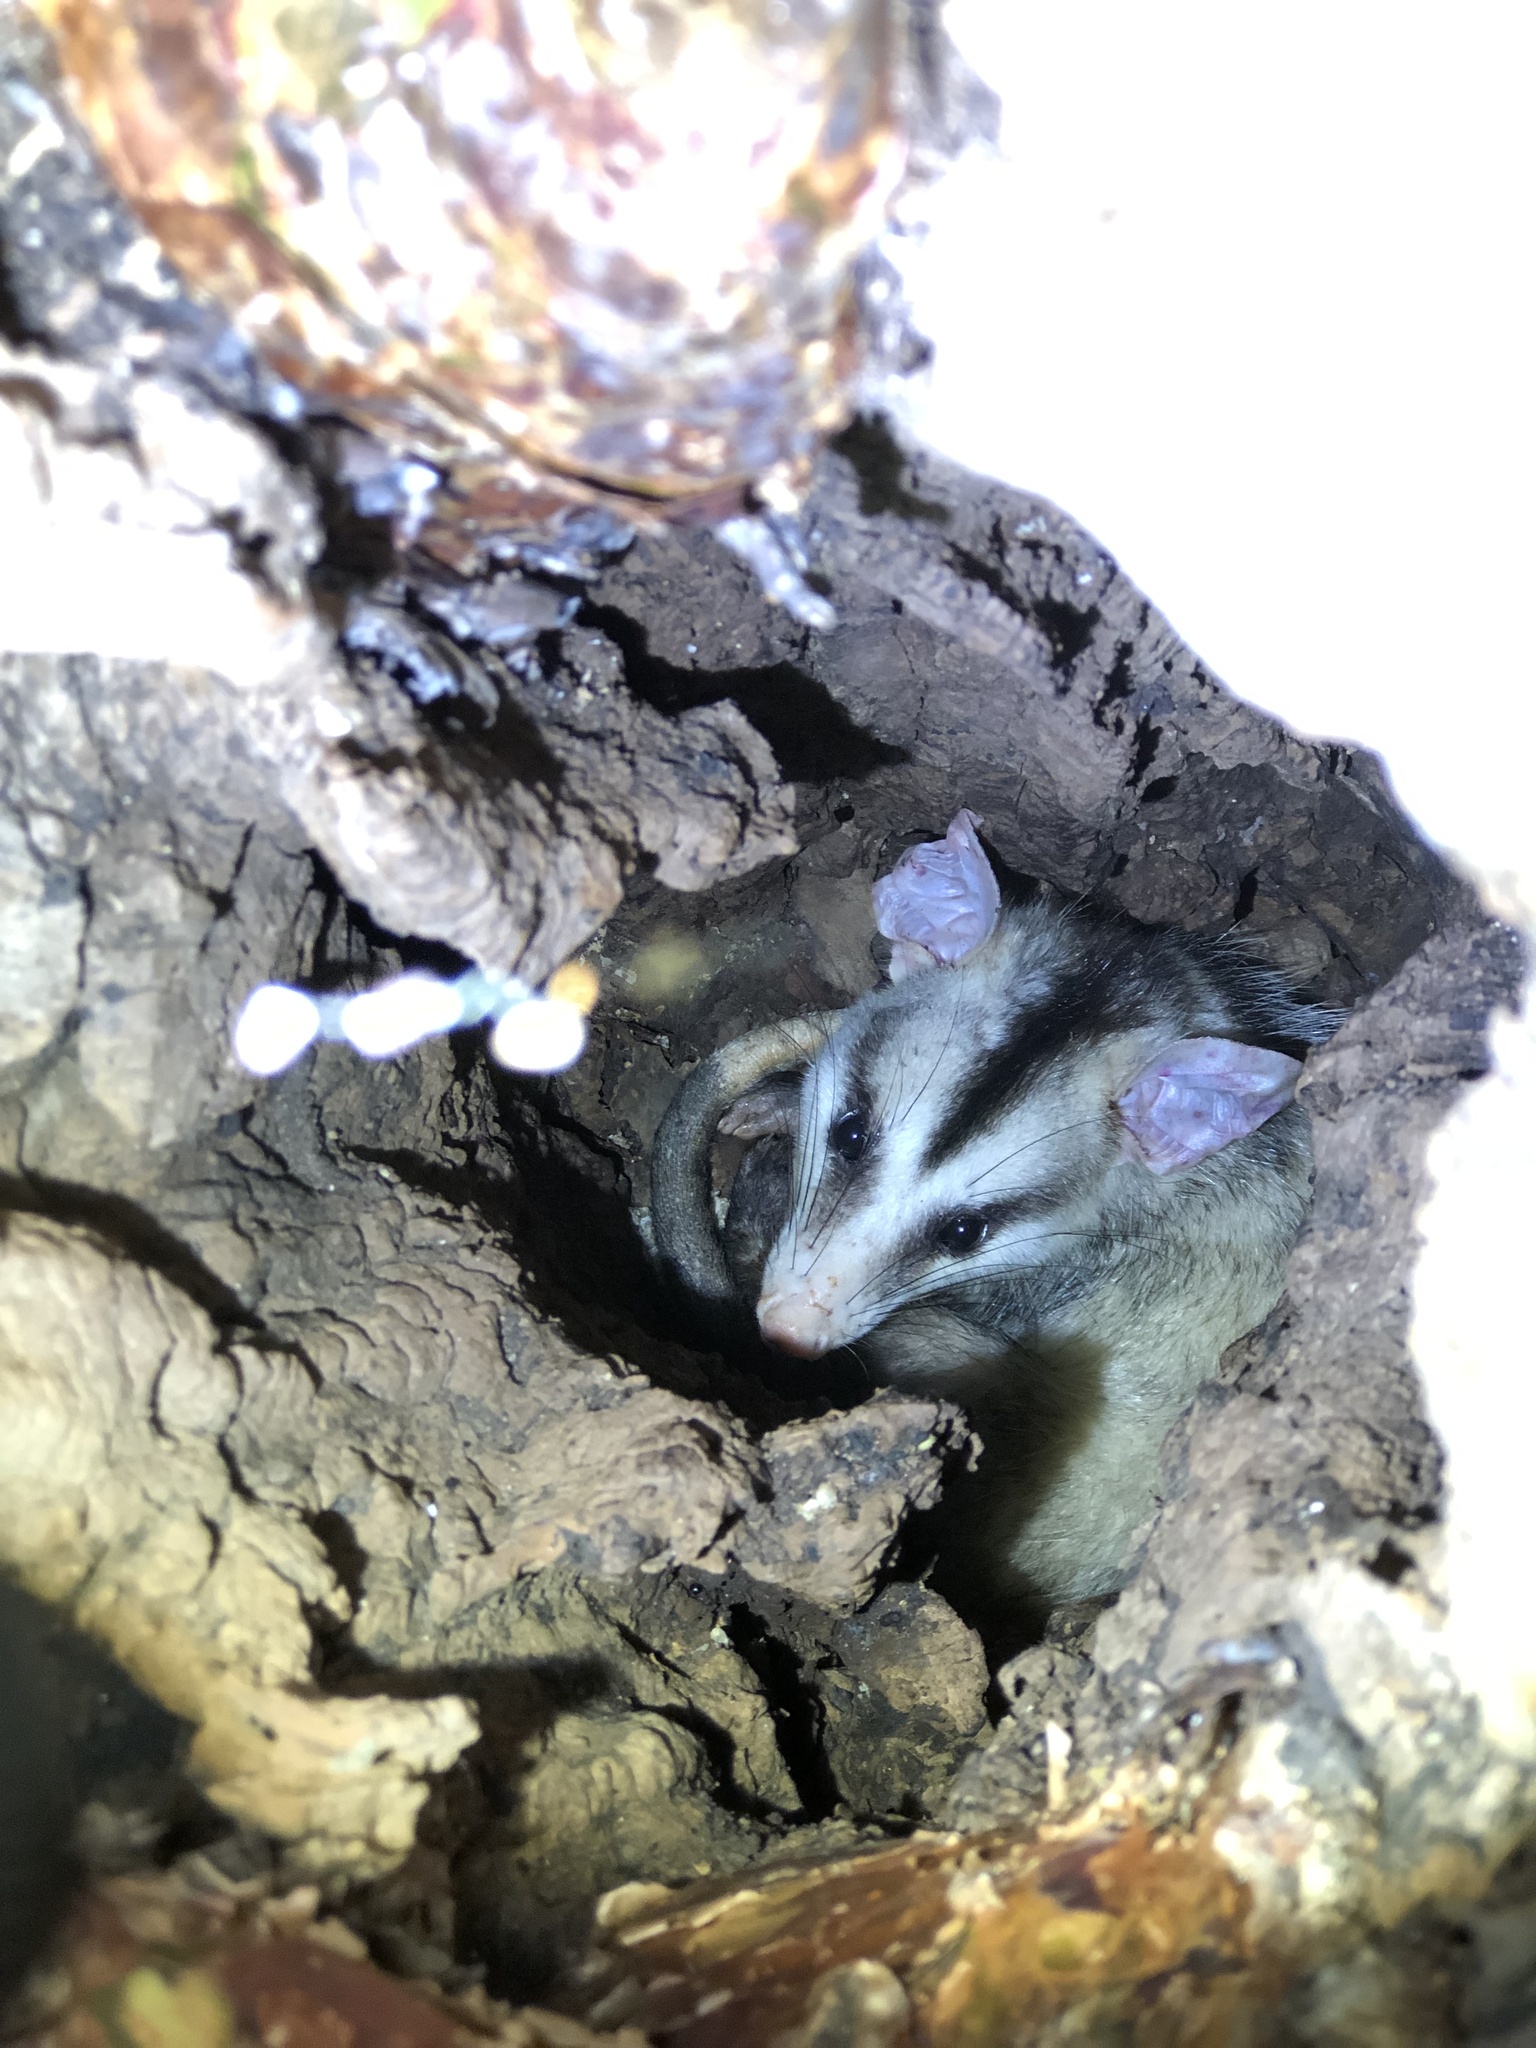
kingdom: Animalia
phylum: Chordata
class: Mammalia
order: Didelphimorphia
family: Didelphidae
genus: Didelphis
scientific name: Didelphis albiventris
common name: White-eared opossum
